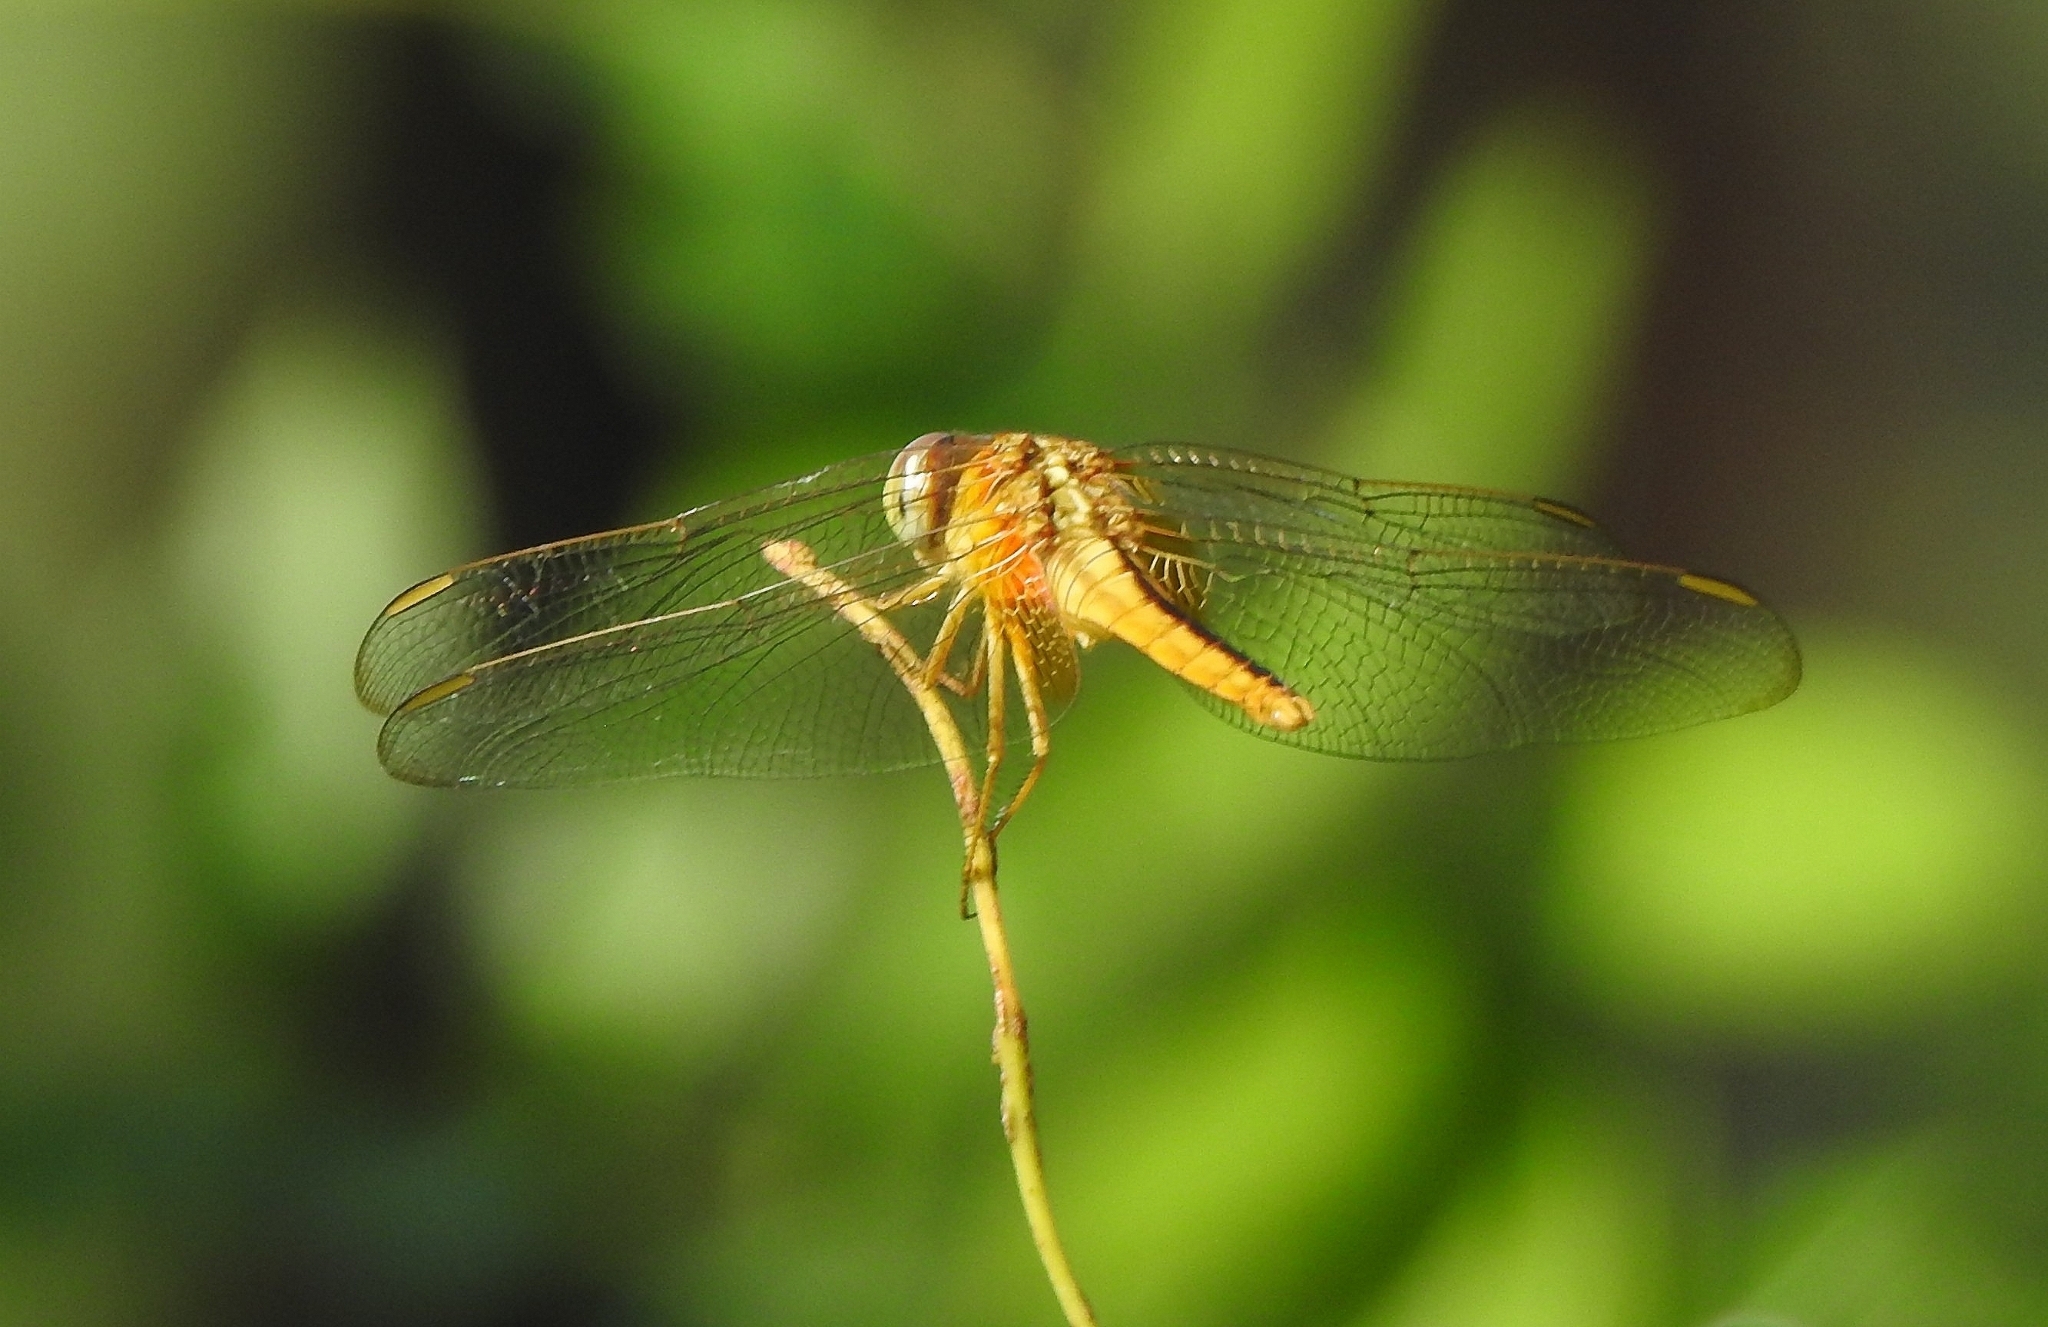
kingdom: Animalia
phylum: Arthropoda
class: Insecta
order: Odonata
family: Libellulidae
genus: Crocothemis
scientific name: Crocothemis servilia
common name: Scarlet skimmer
